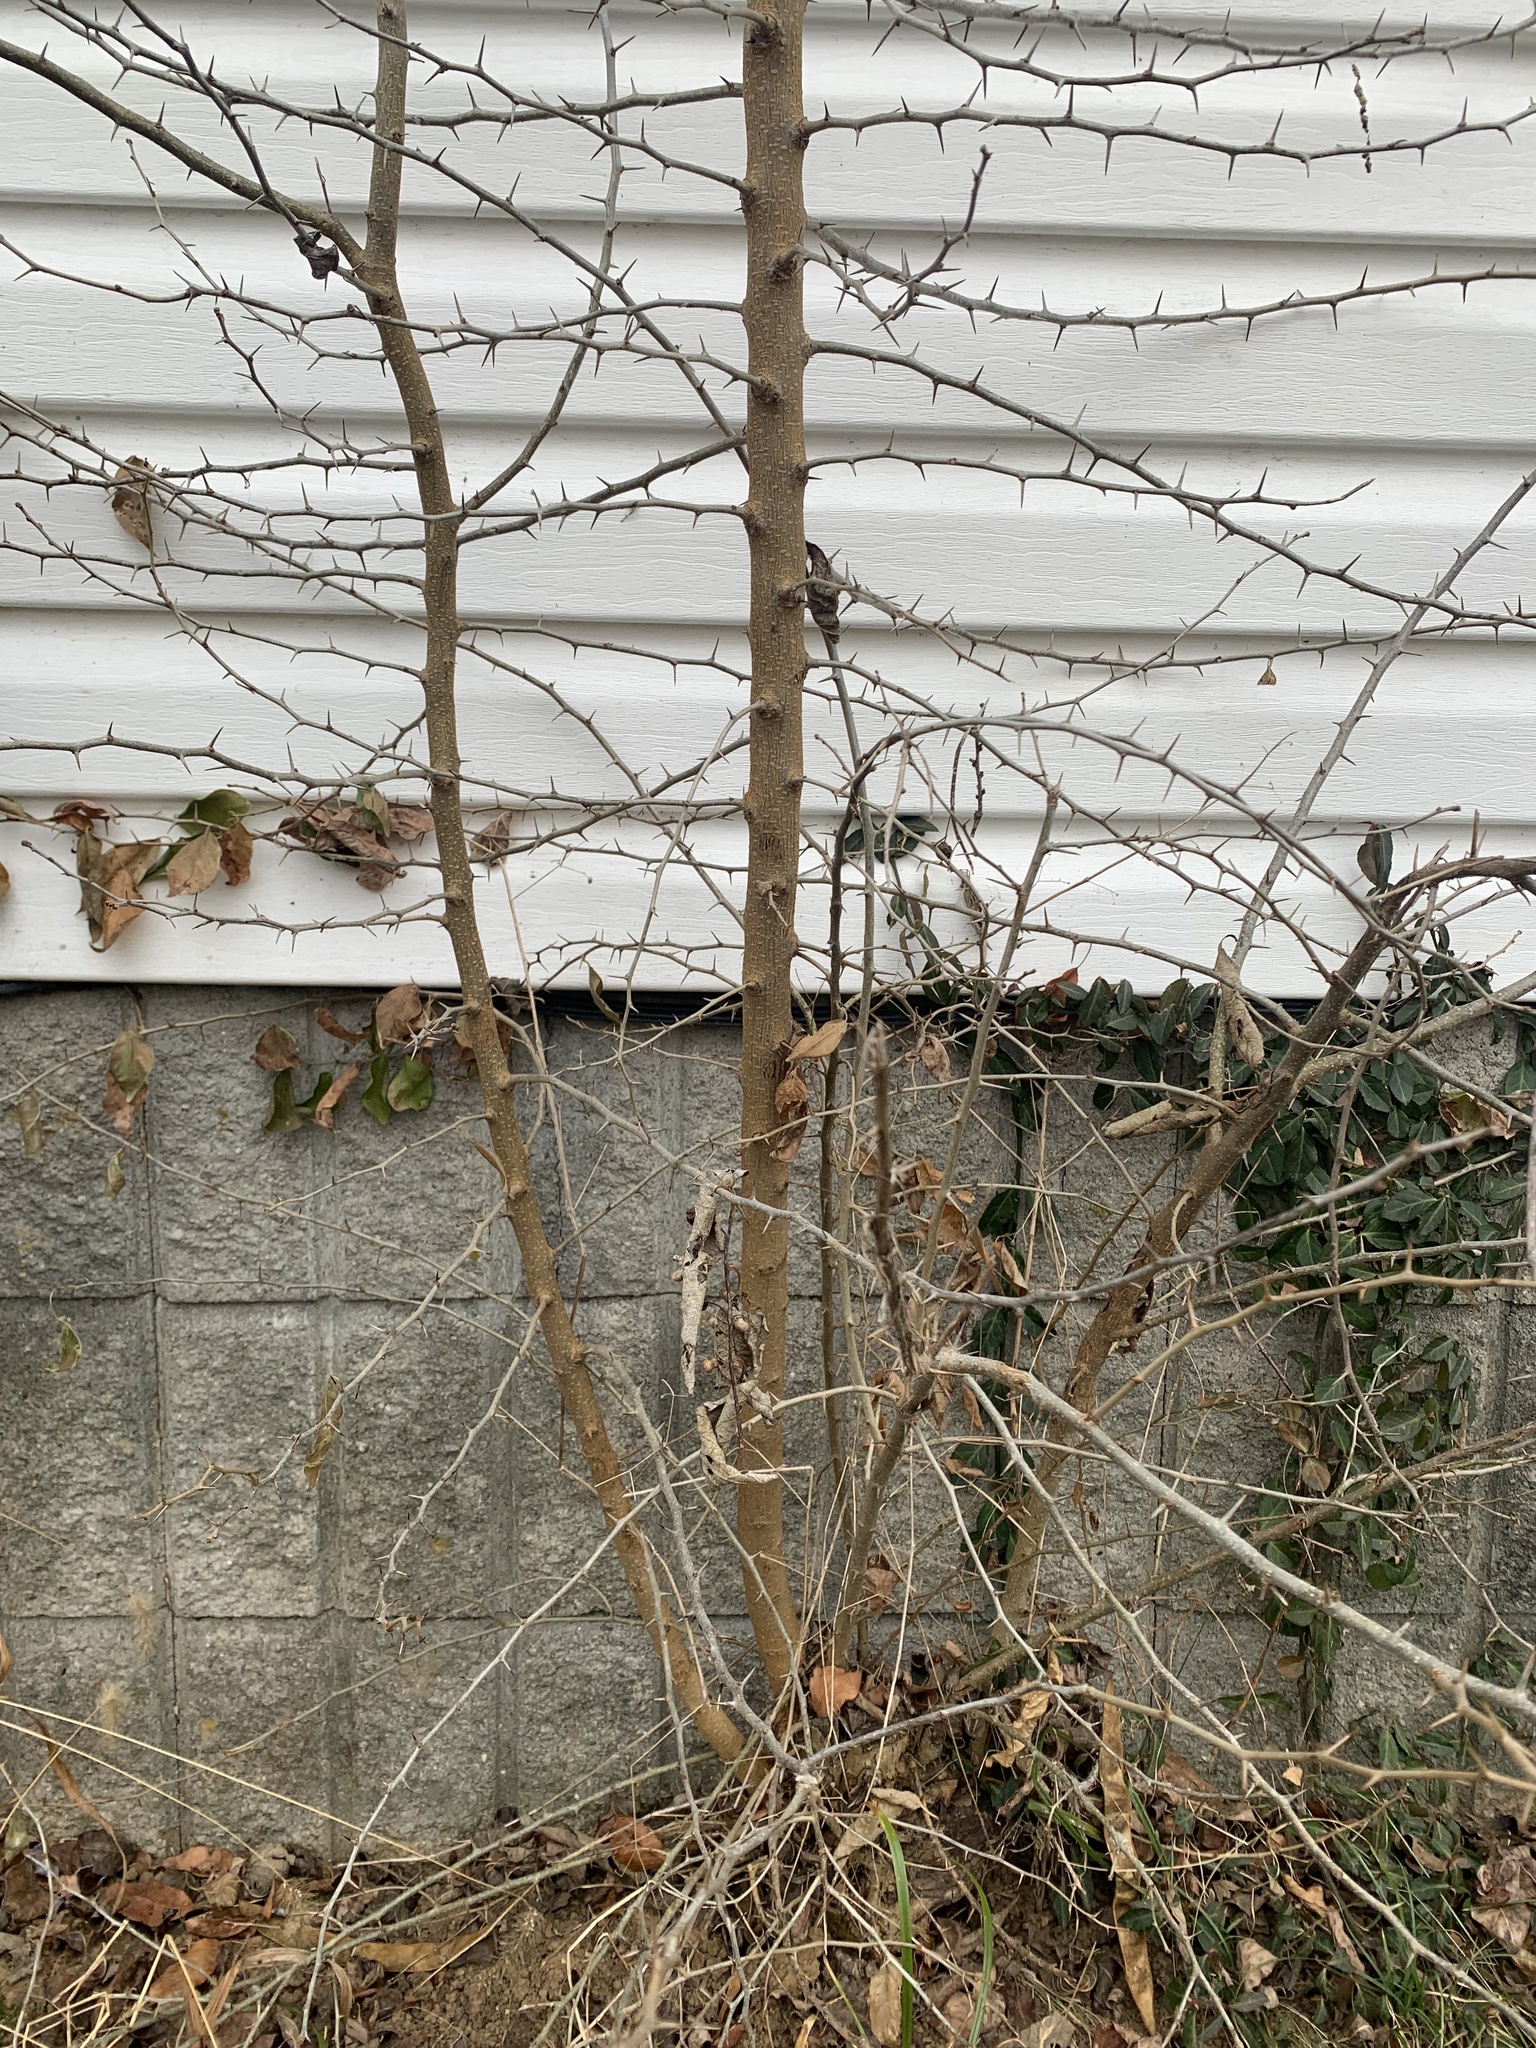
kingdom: Plantae
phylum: Tracheophyta
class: Magnoliopsida
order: Rosales
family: Moraceae
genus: Maclura
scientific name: Maclura pomifera
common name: Osage-orange
